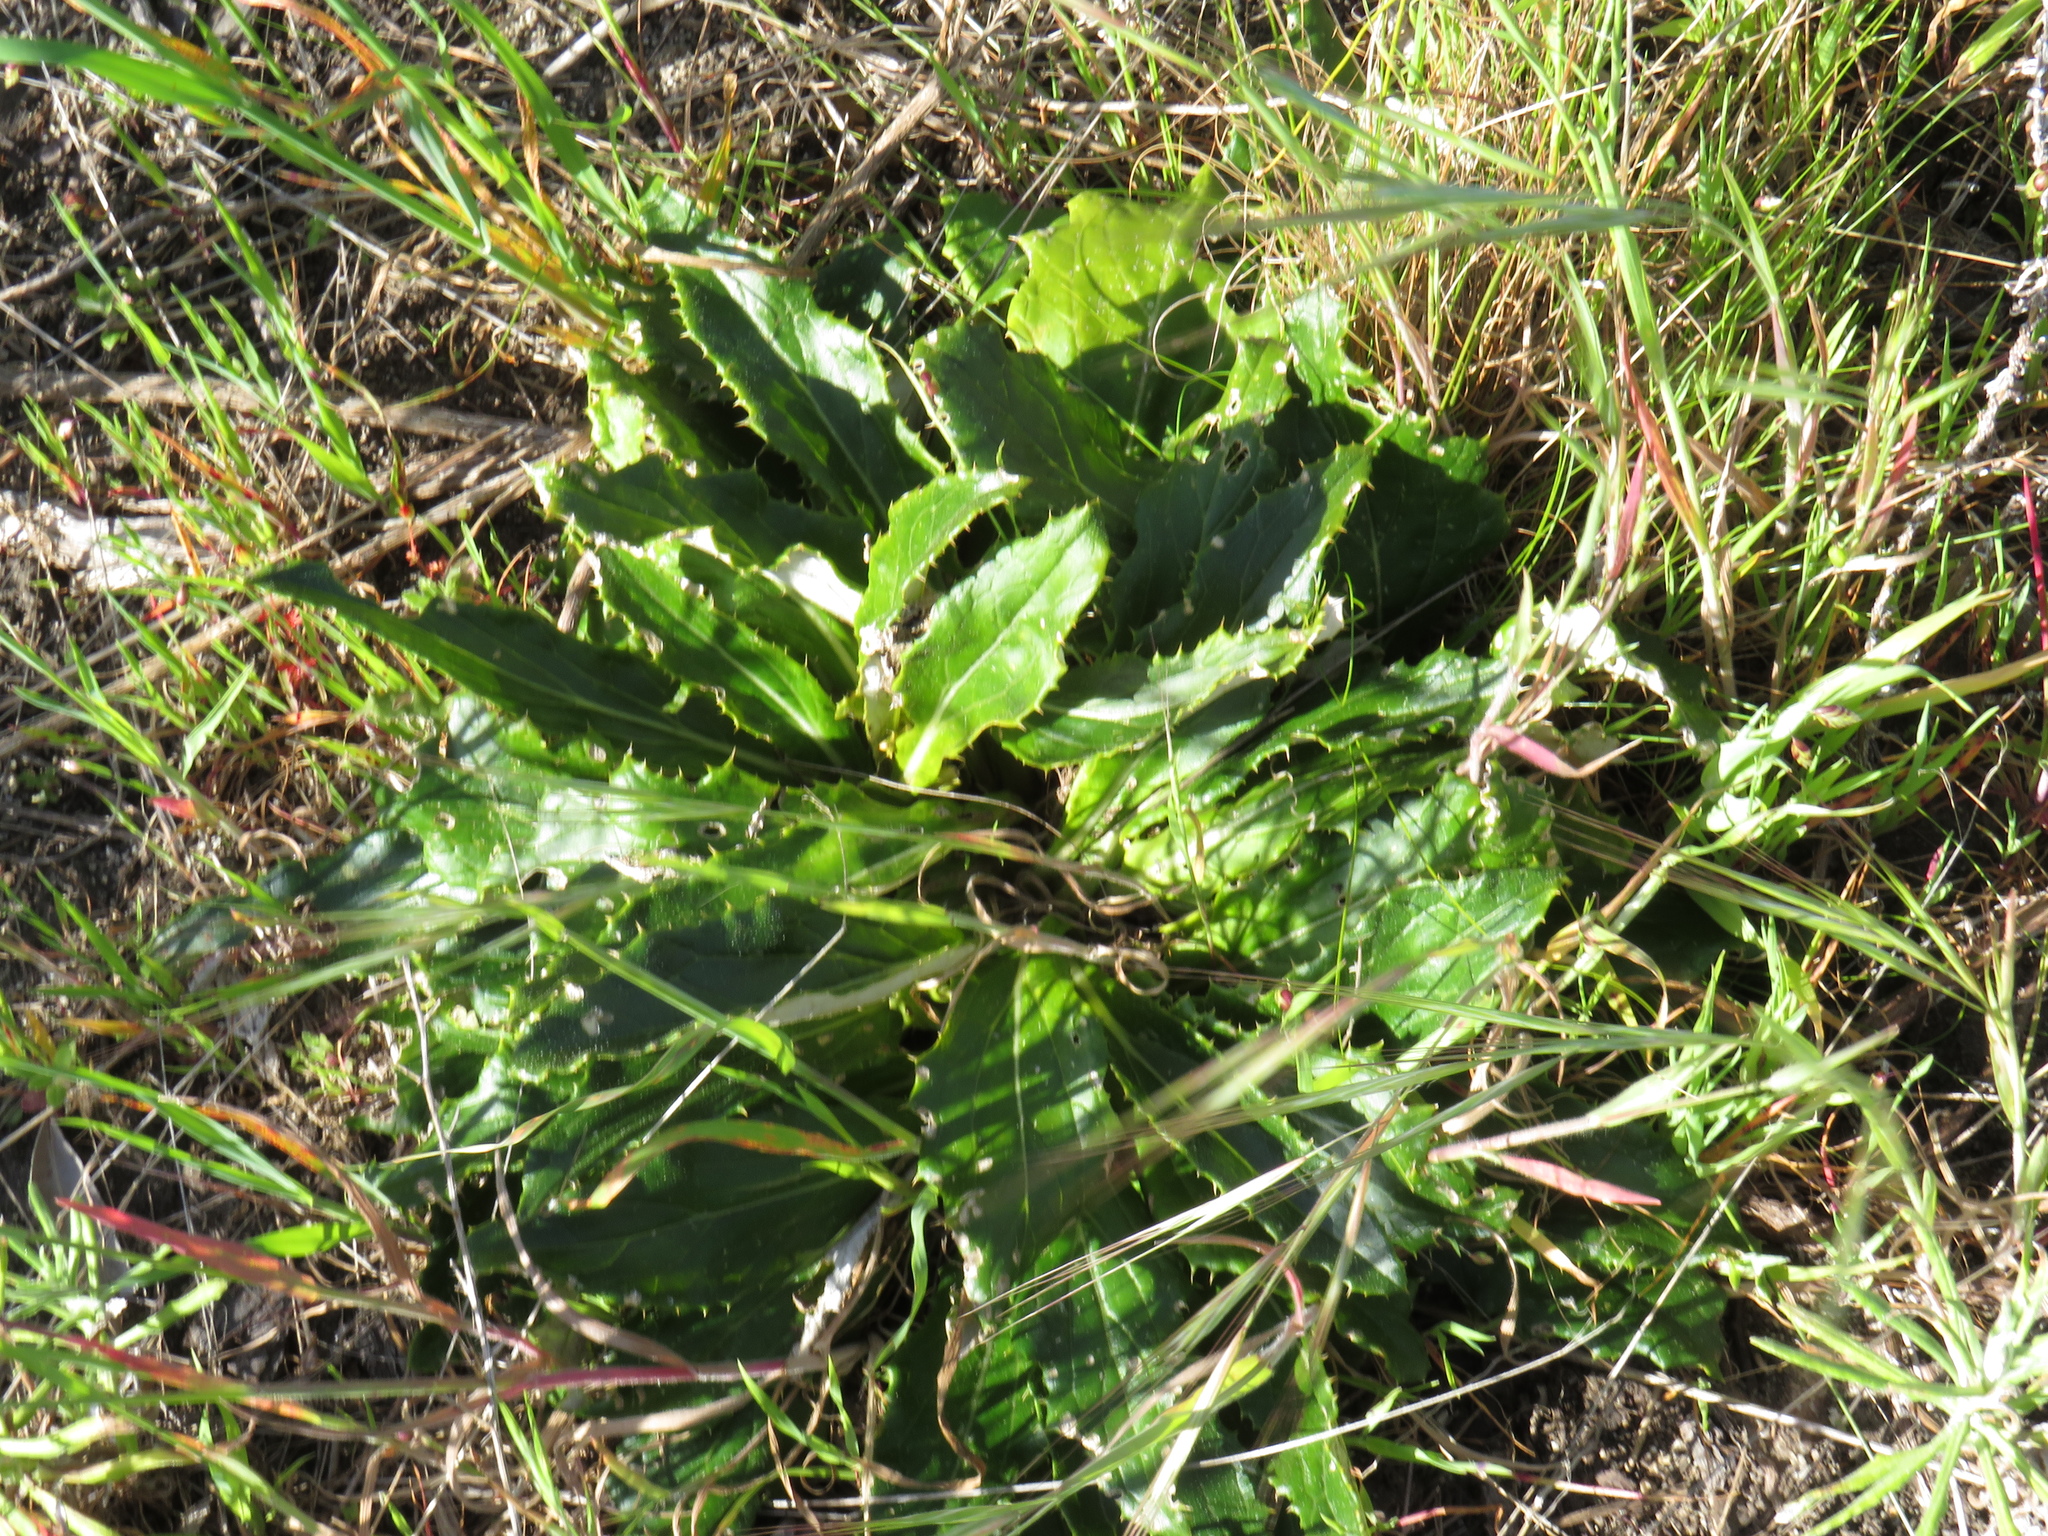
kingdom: Plantae
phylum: Tracheophyta
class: Magnoliopsida
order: Asterales
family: Asteraceae
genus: Berkheya
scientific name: Berkheya armata
